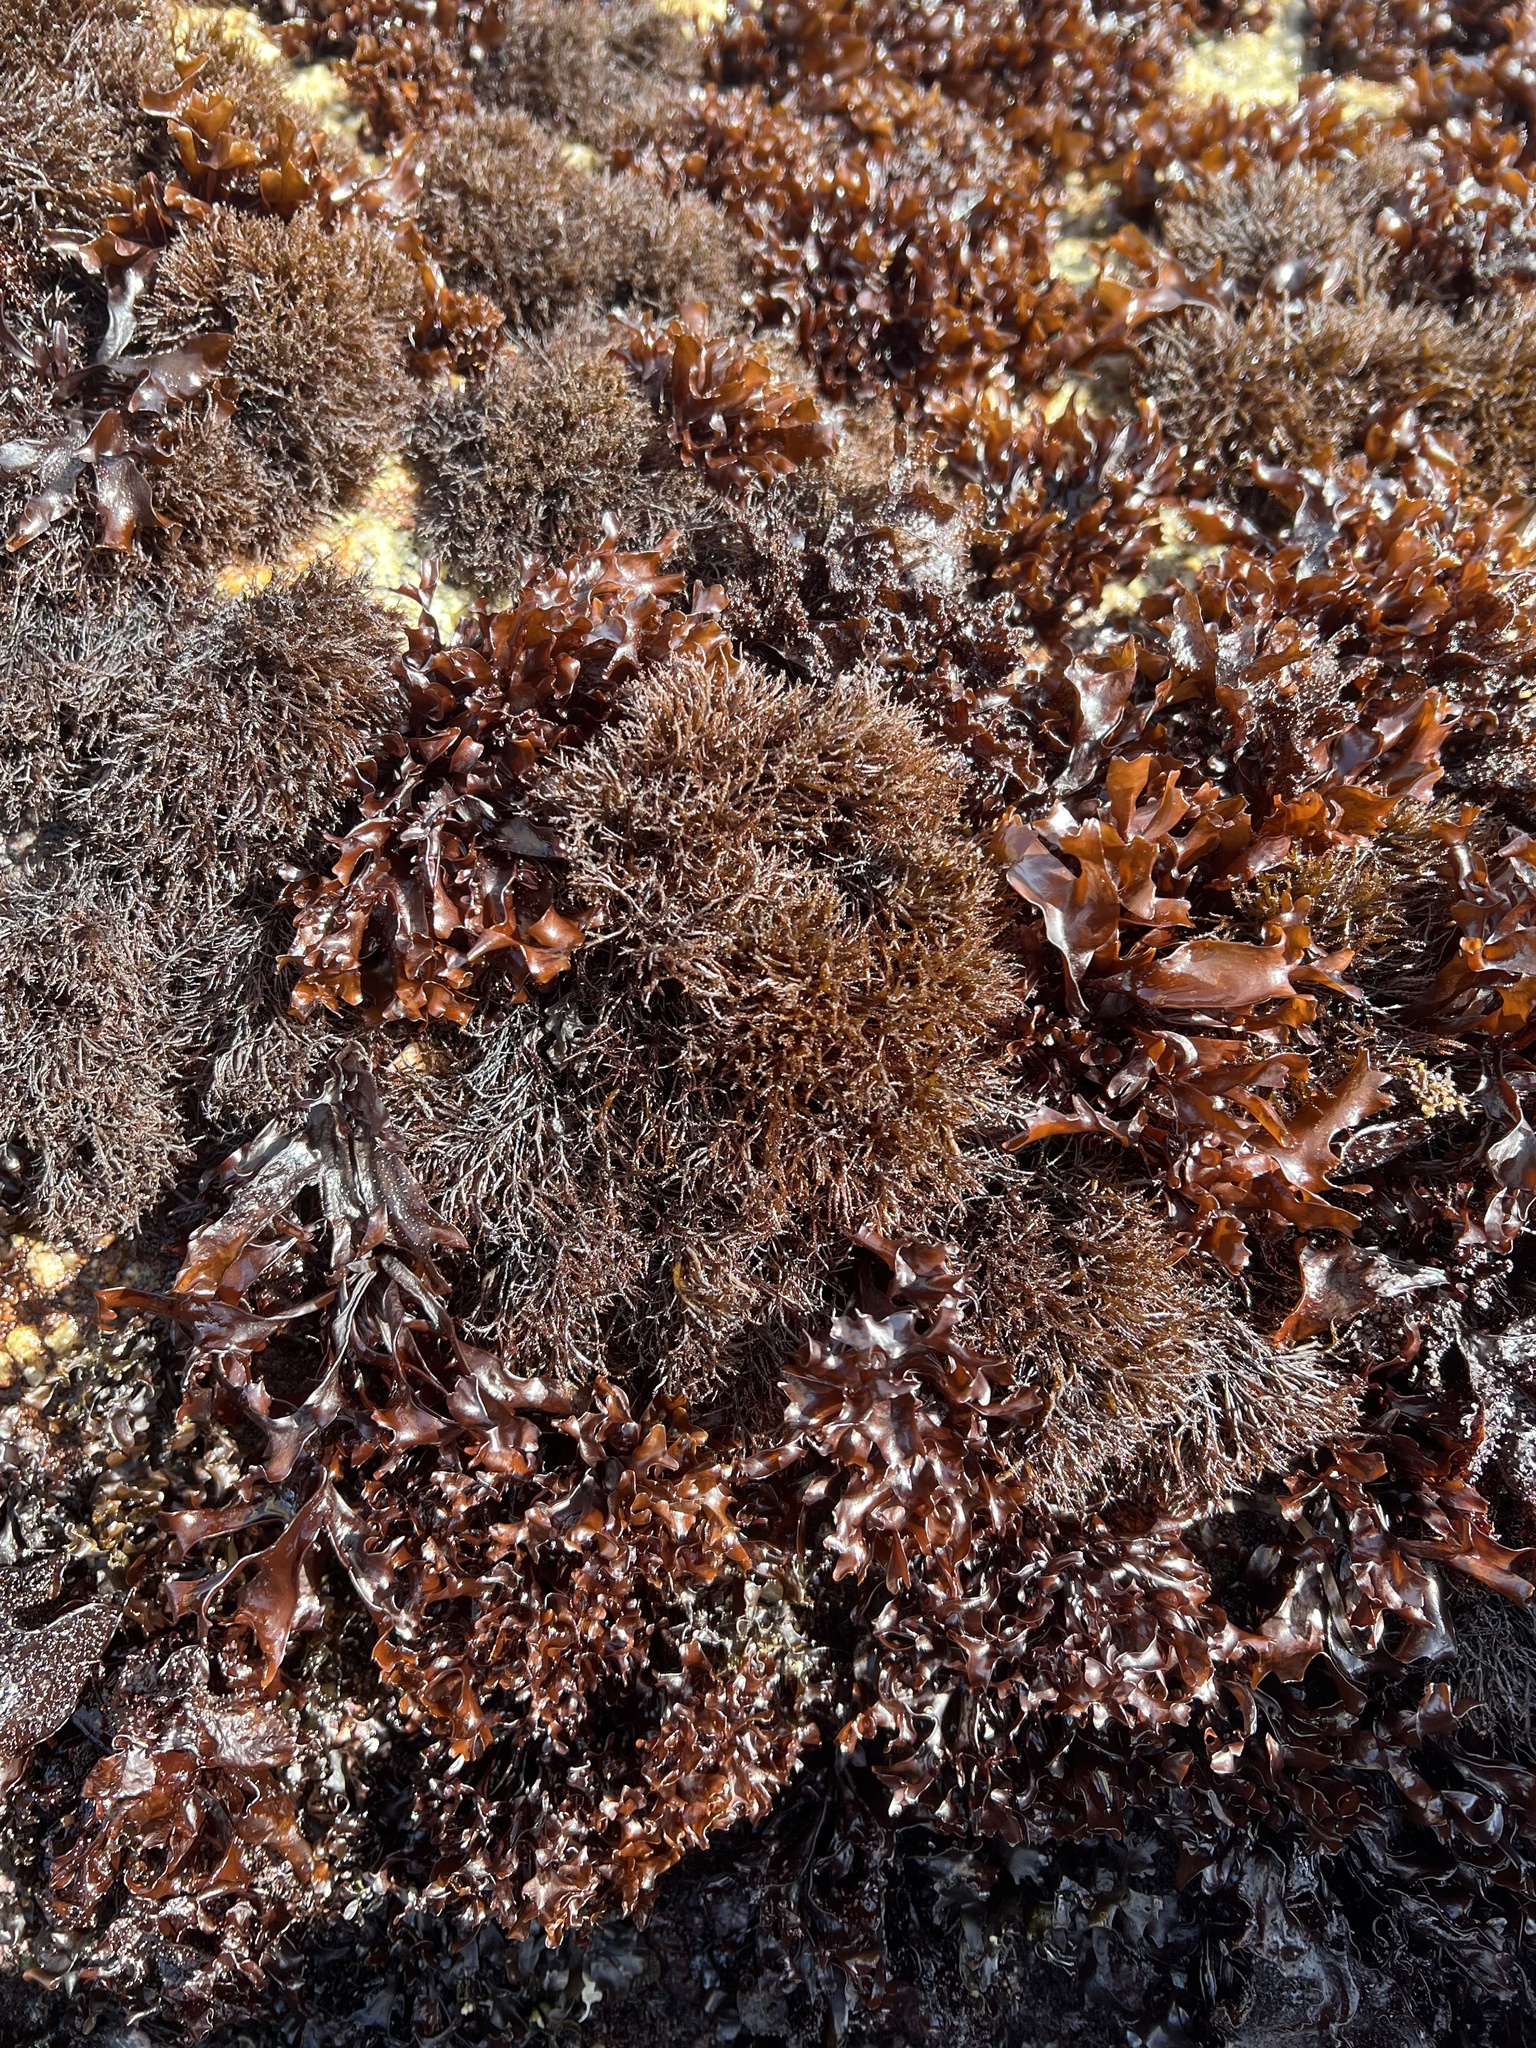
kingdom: Plantae
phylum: Rhodophyta
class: Florideophyceae
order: Gigartinales
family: Endocladiaceae
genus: Endocladia
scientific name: Endocladia muricata
